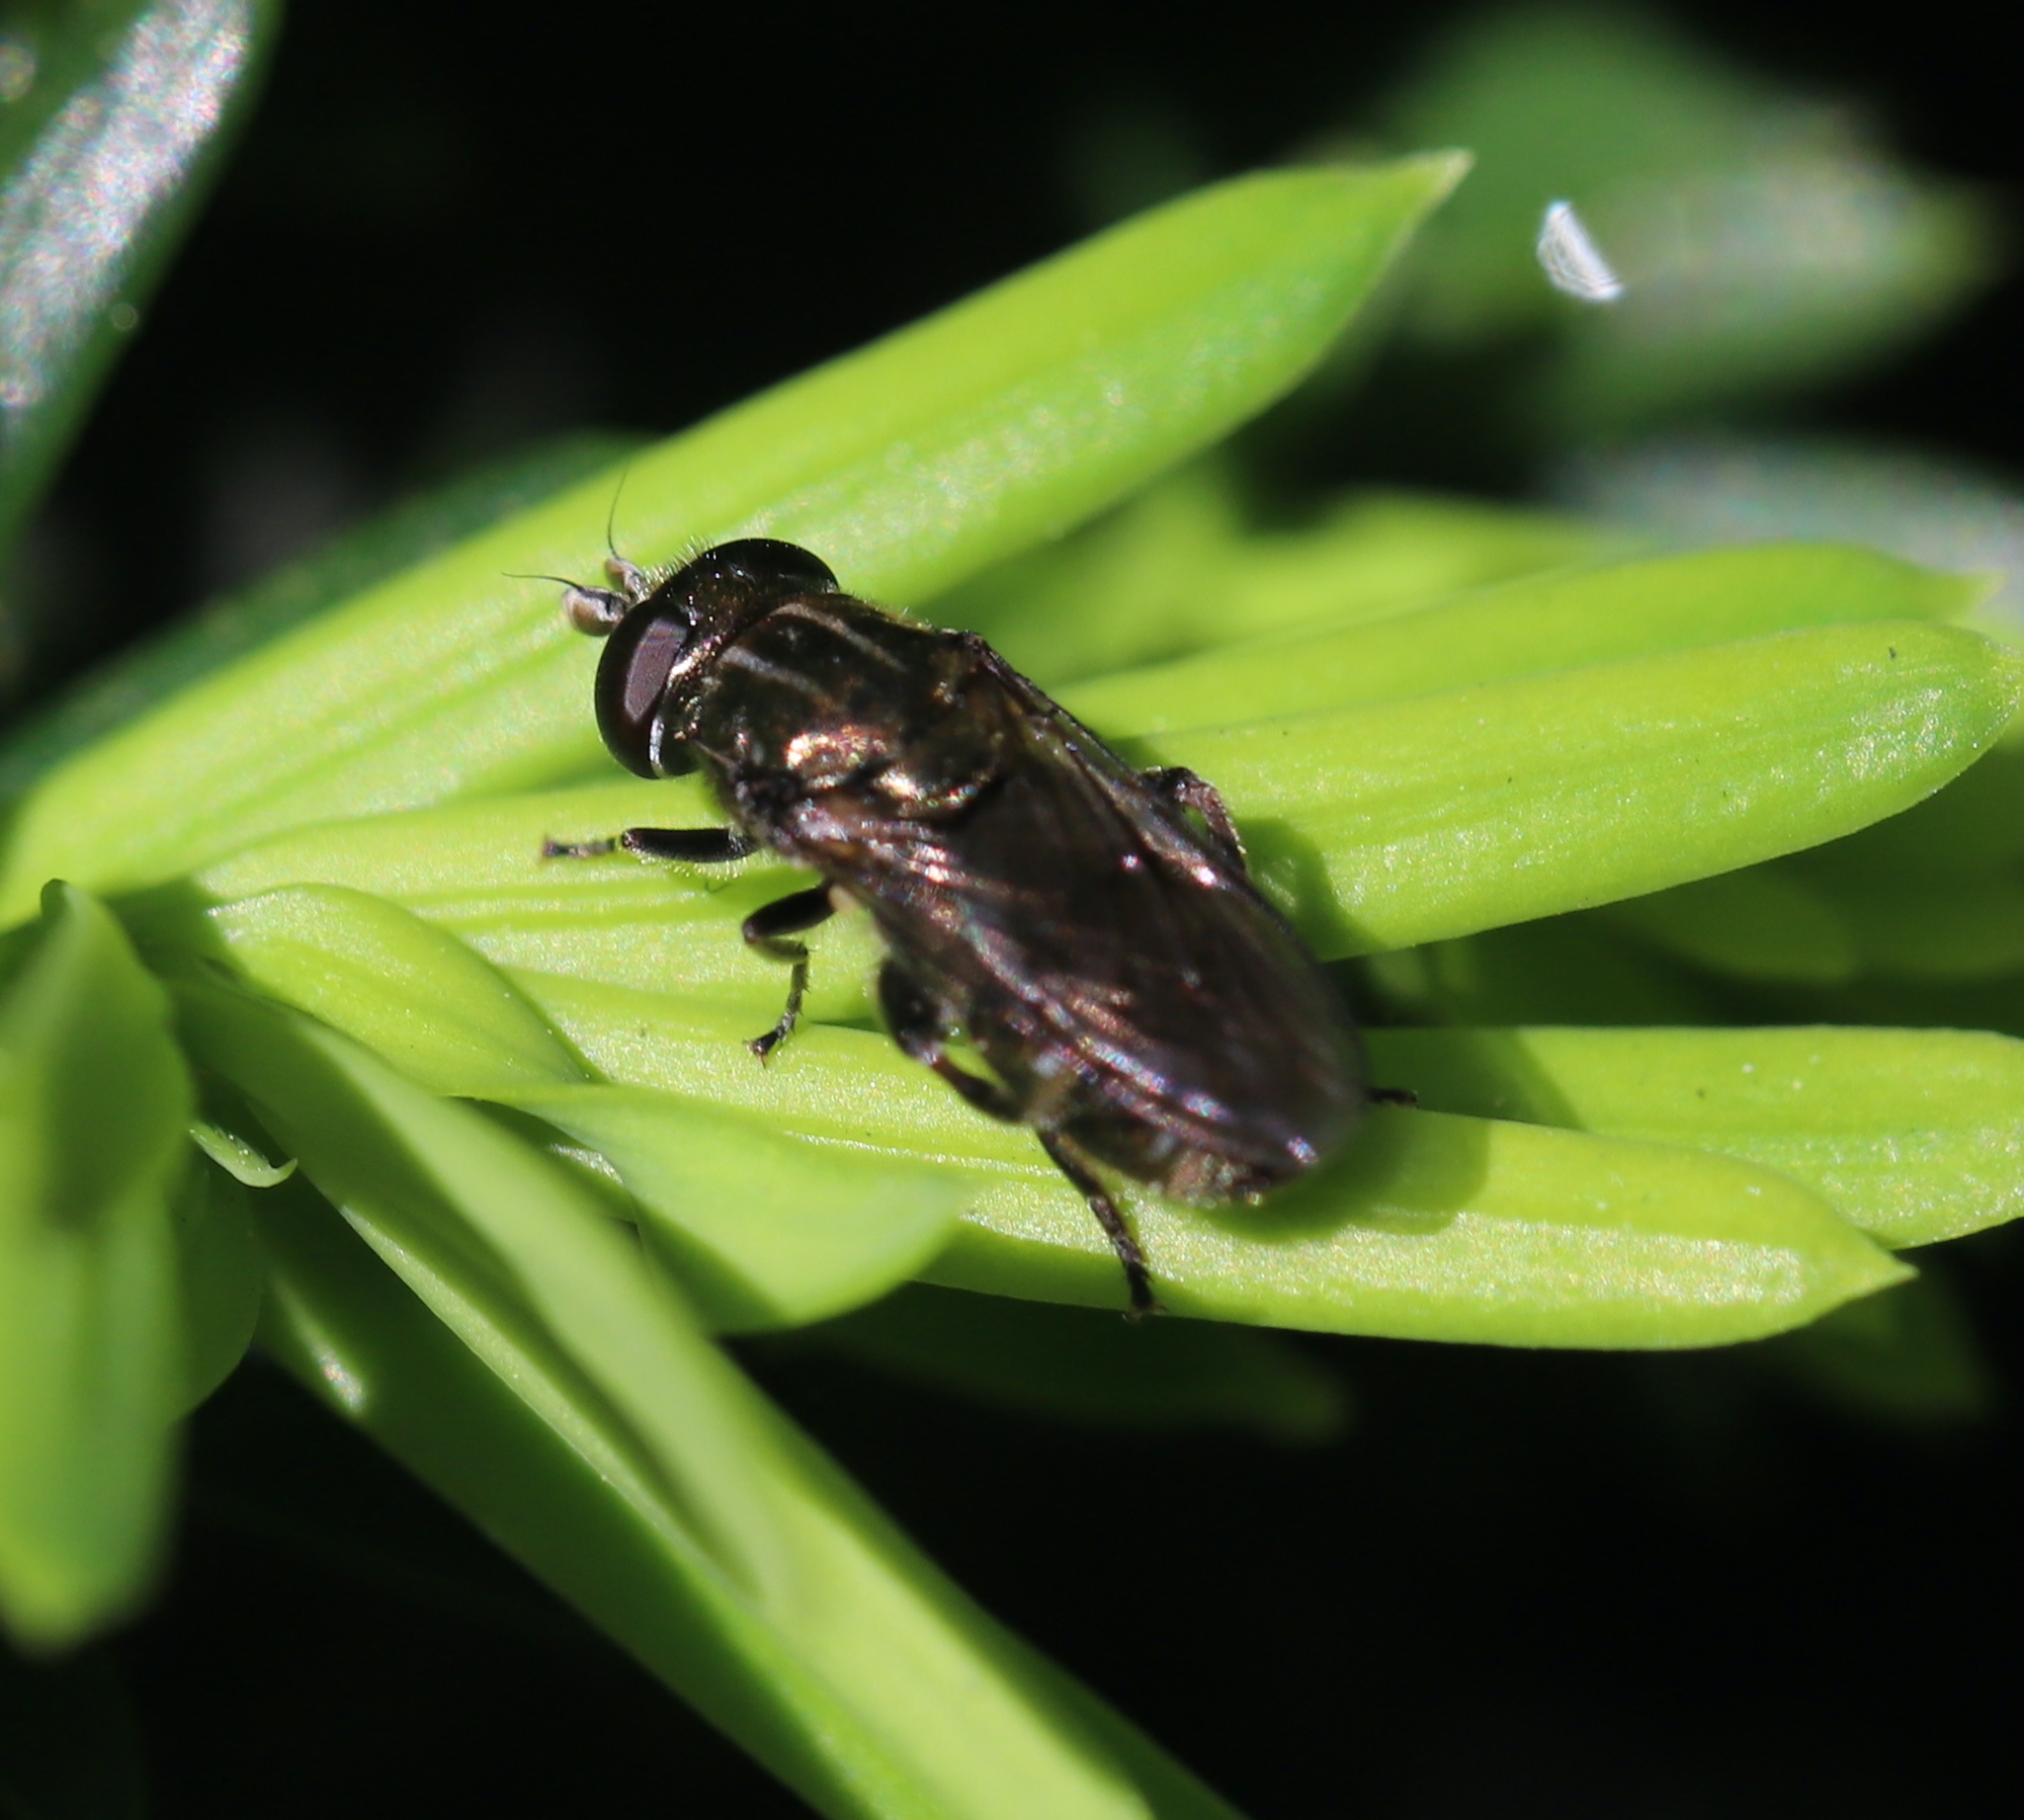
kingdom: Animalia
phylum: Arthropoda
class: Insecta
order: Diptera
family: Syrphidae
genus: Eumerus
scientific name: Eumerus
